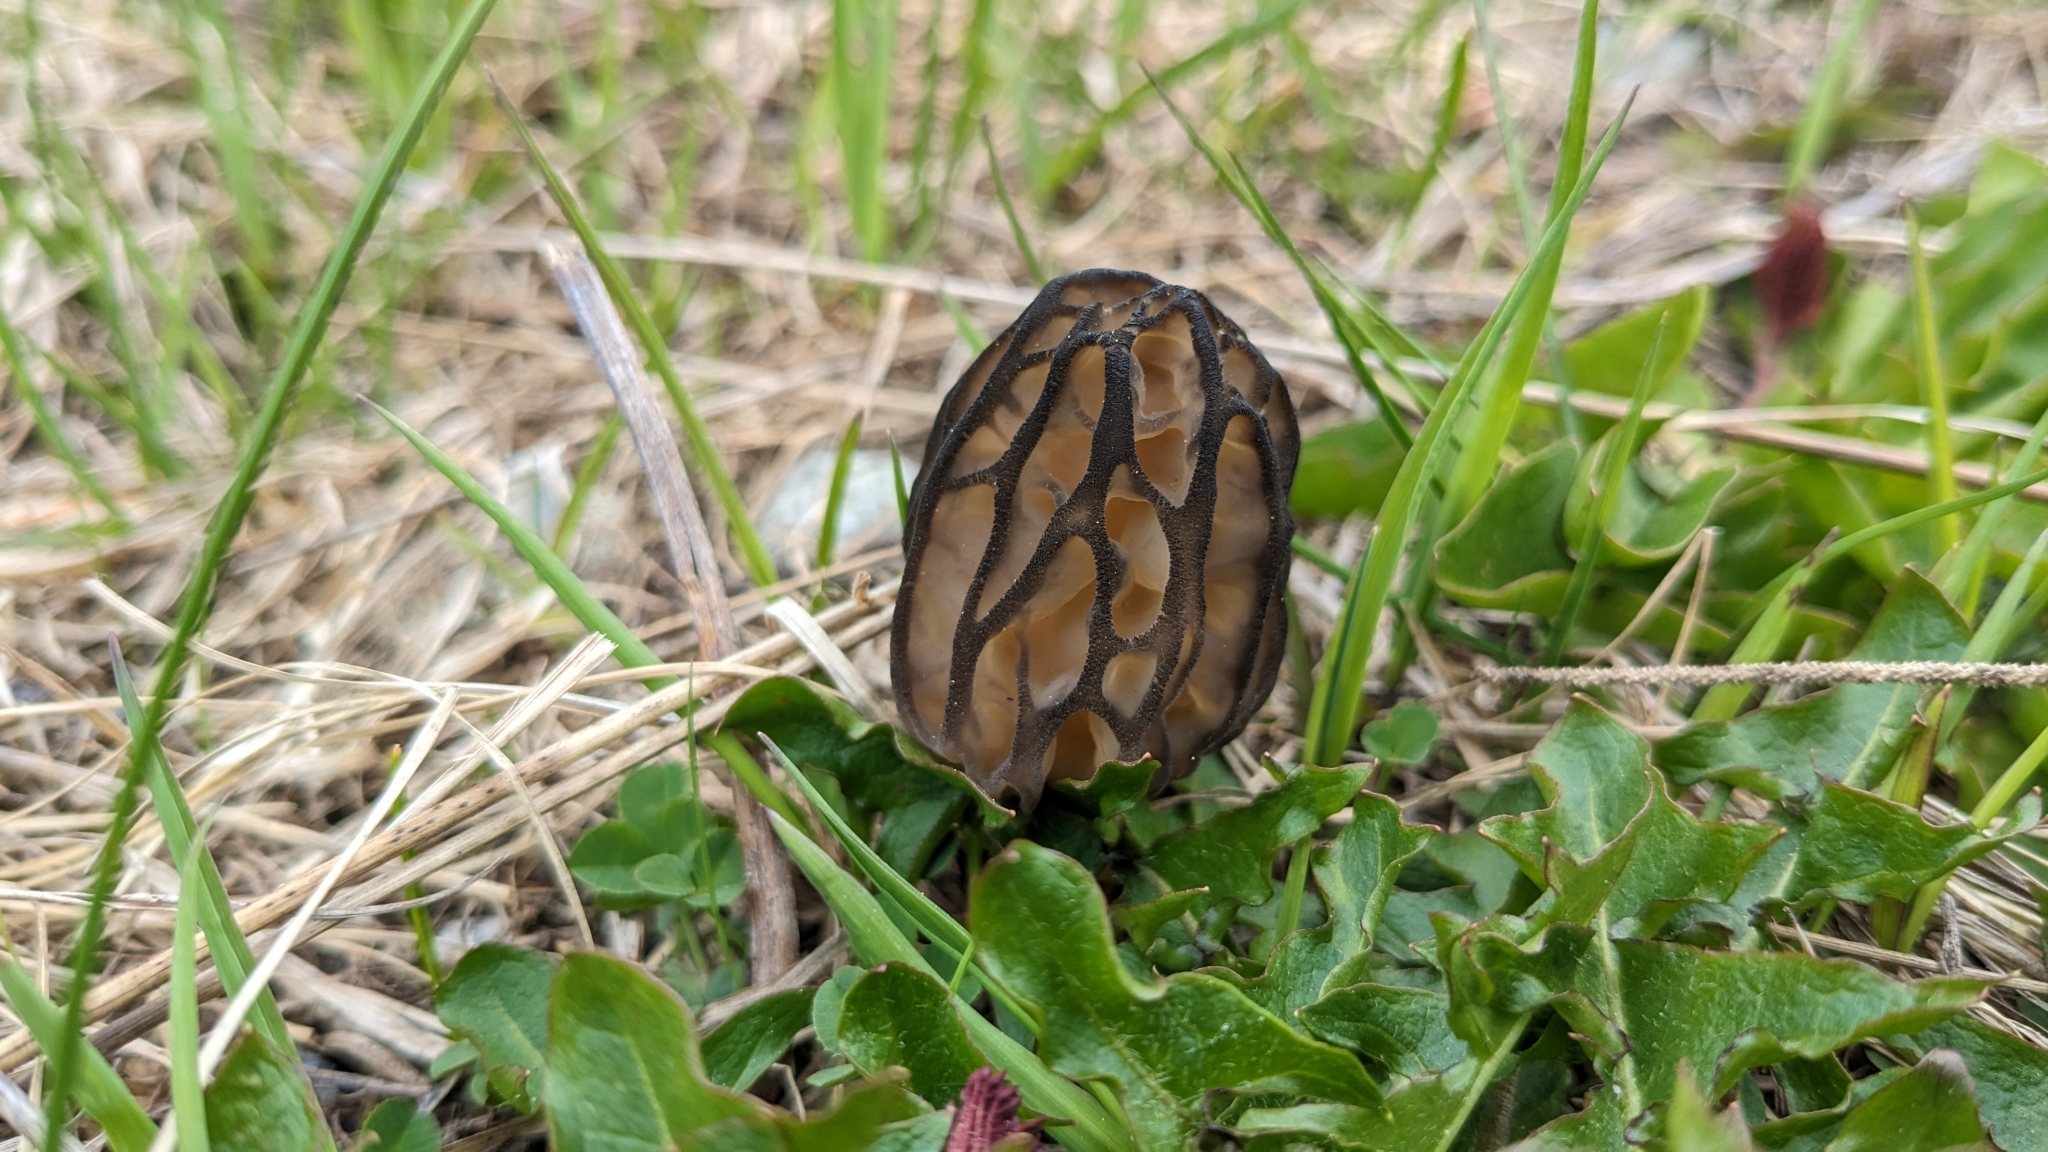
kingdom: Fungi
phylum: Ascomycota
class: Pezizomycetes
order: Pezizales
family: Morchellaceae
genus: Morchella
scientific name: Morchella
